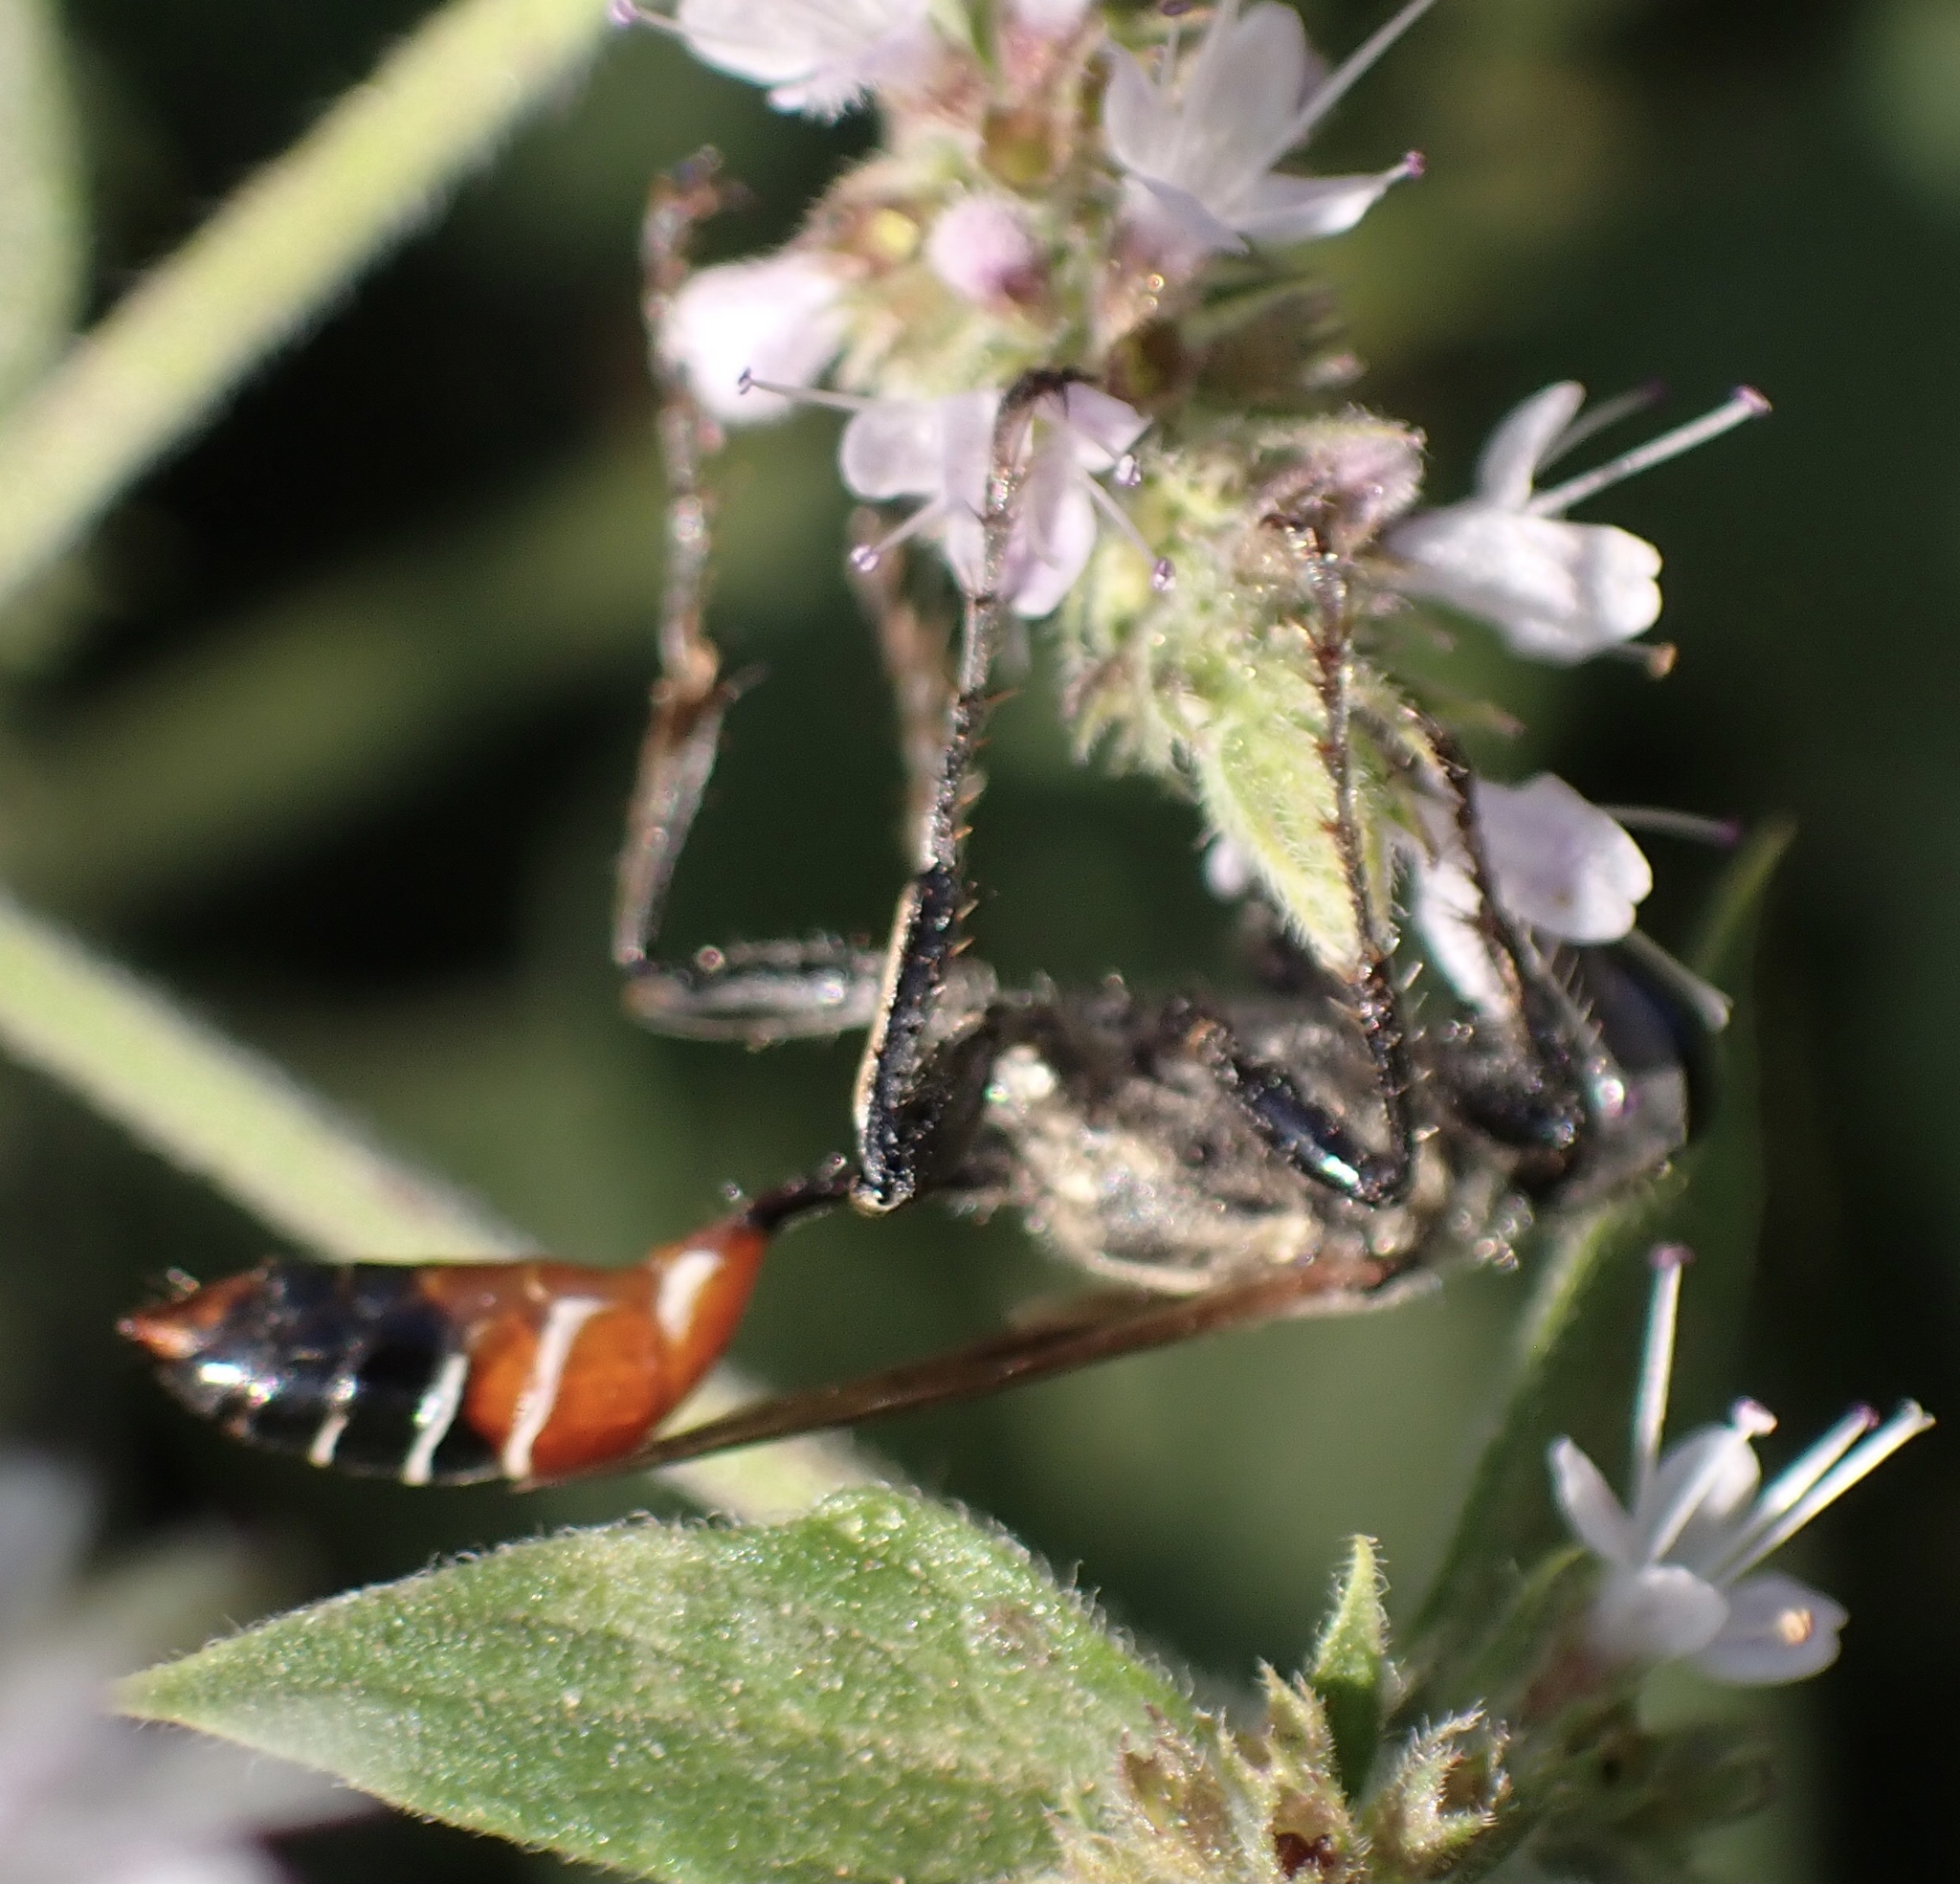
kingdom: Animalia
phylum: Arthropoda
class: Insecta
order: Hymenoptera
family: Sphecidae
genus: Prionyx
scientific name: Prionyx kirbii
